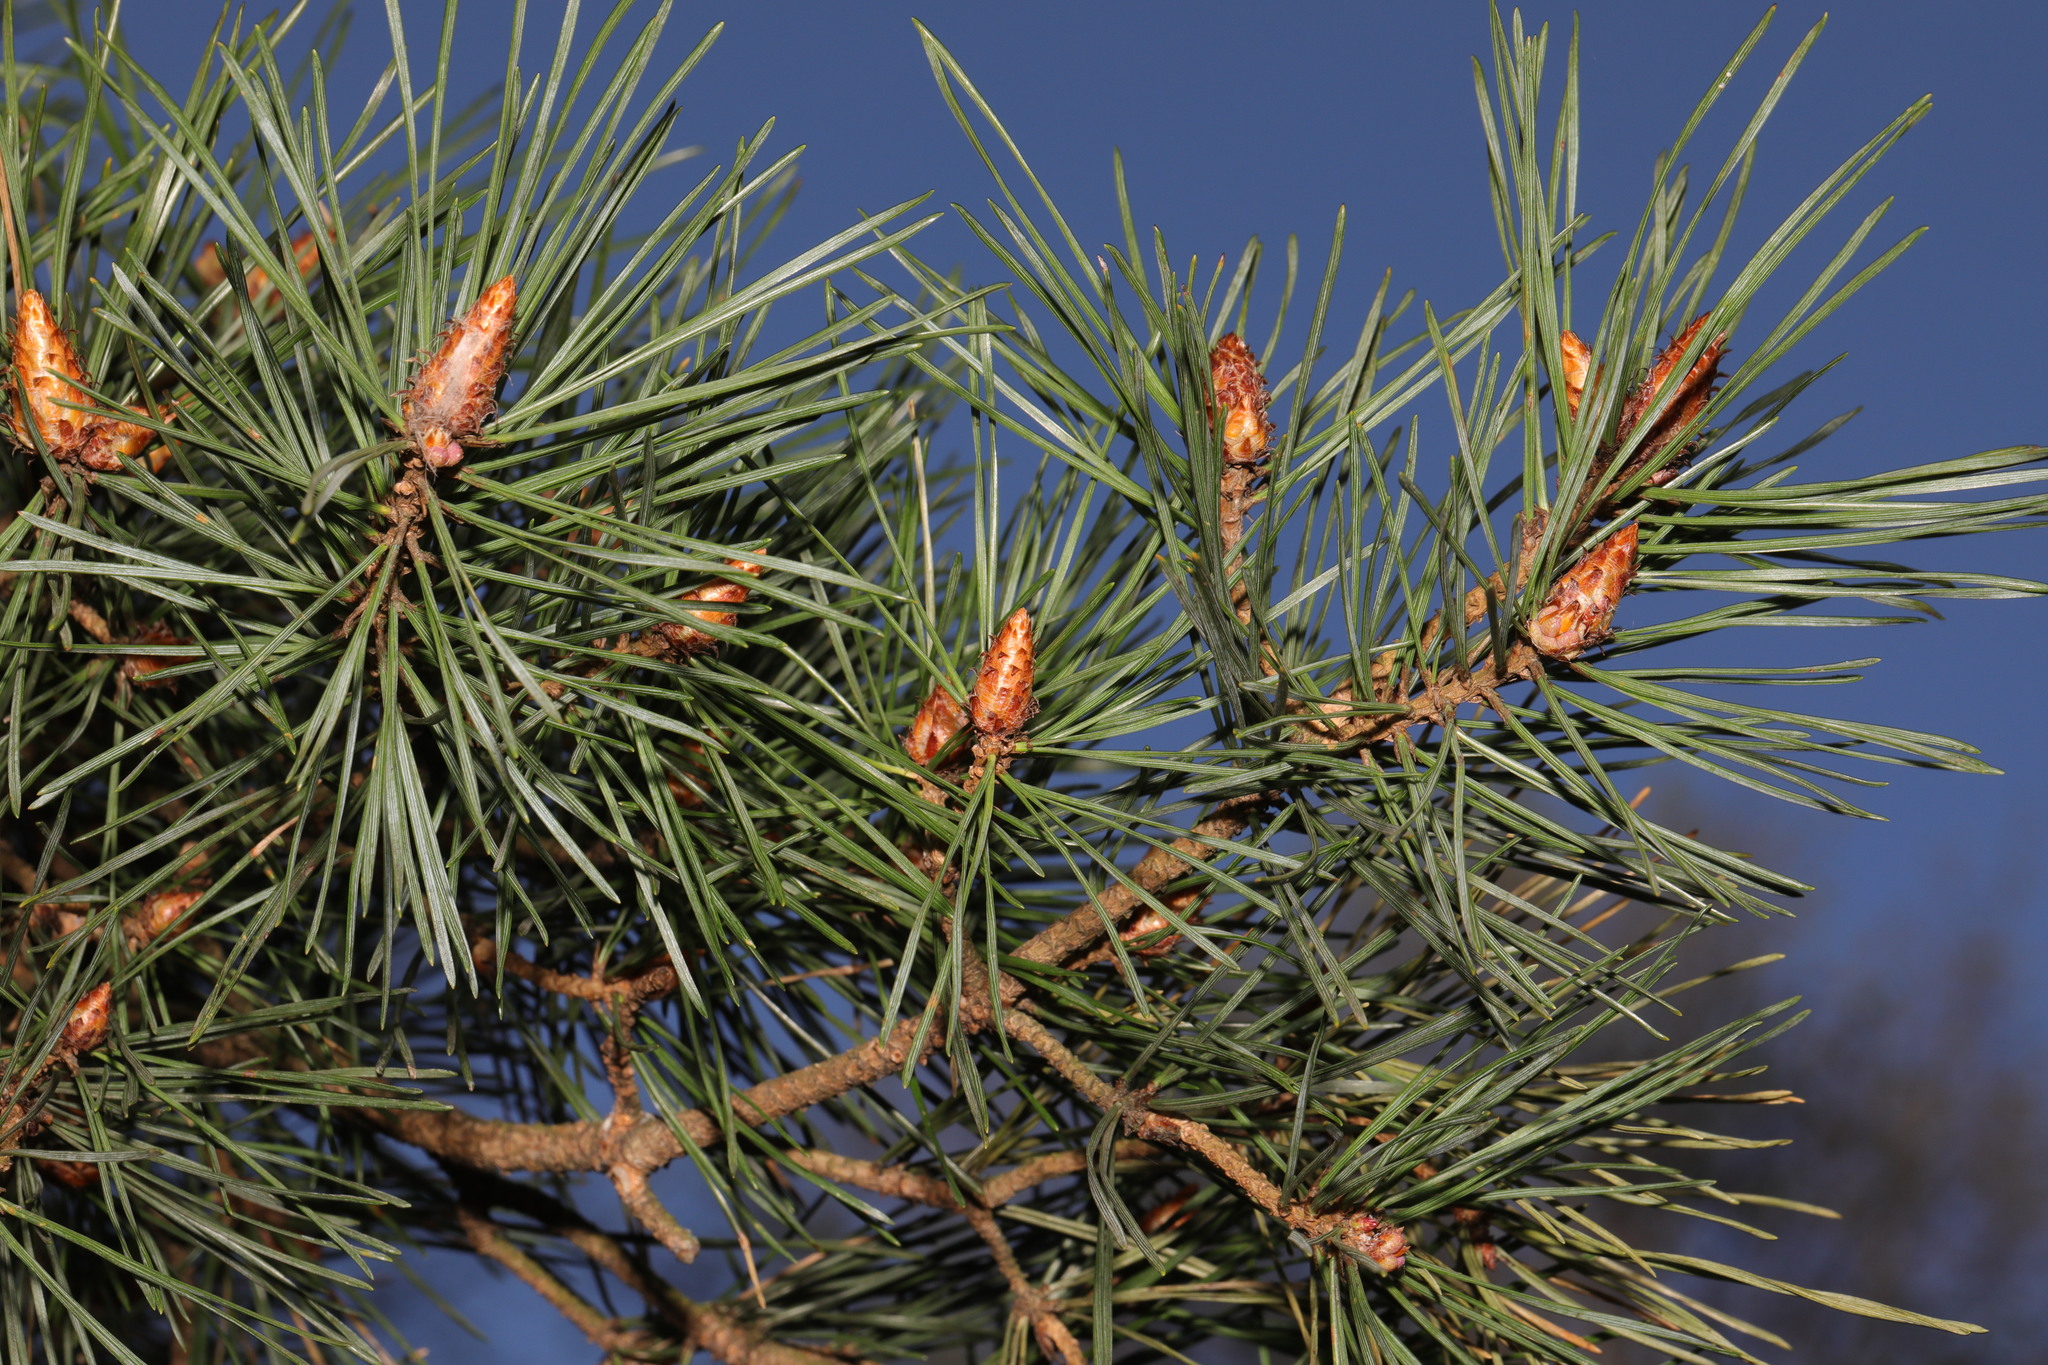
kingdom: Plantae
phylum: Tracheophyta
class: Pinopsida
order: Pinales
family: Pinaceae
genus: Pinus
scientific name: Pinus sylvestris
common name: Scots pine
